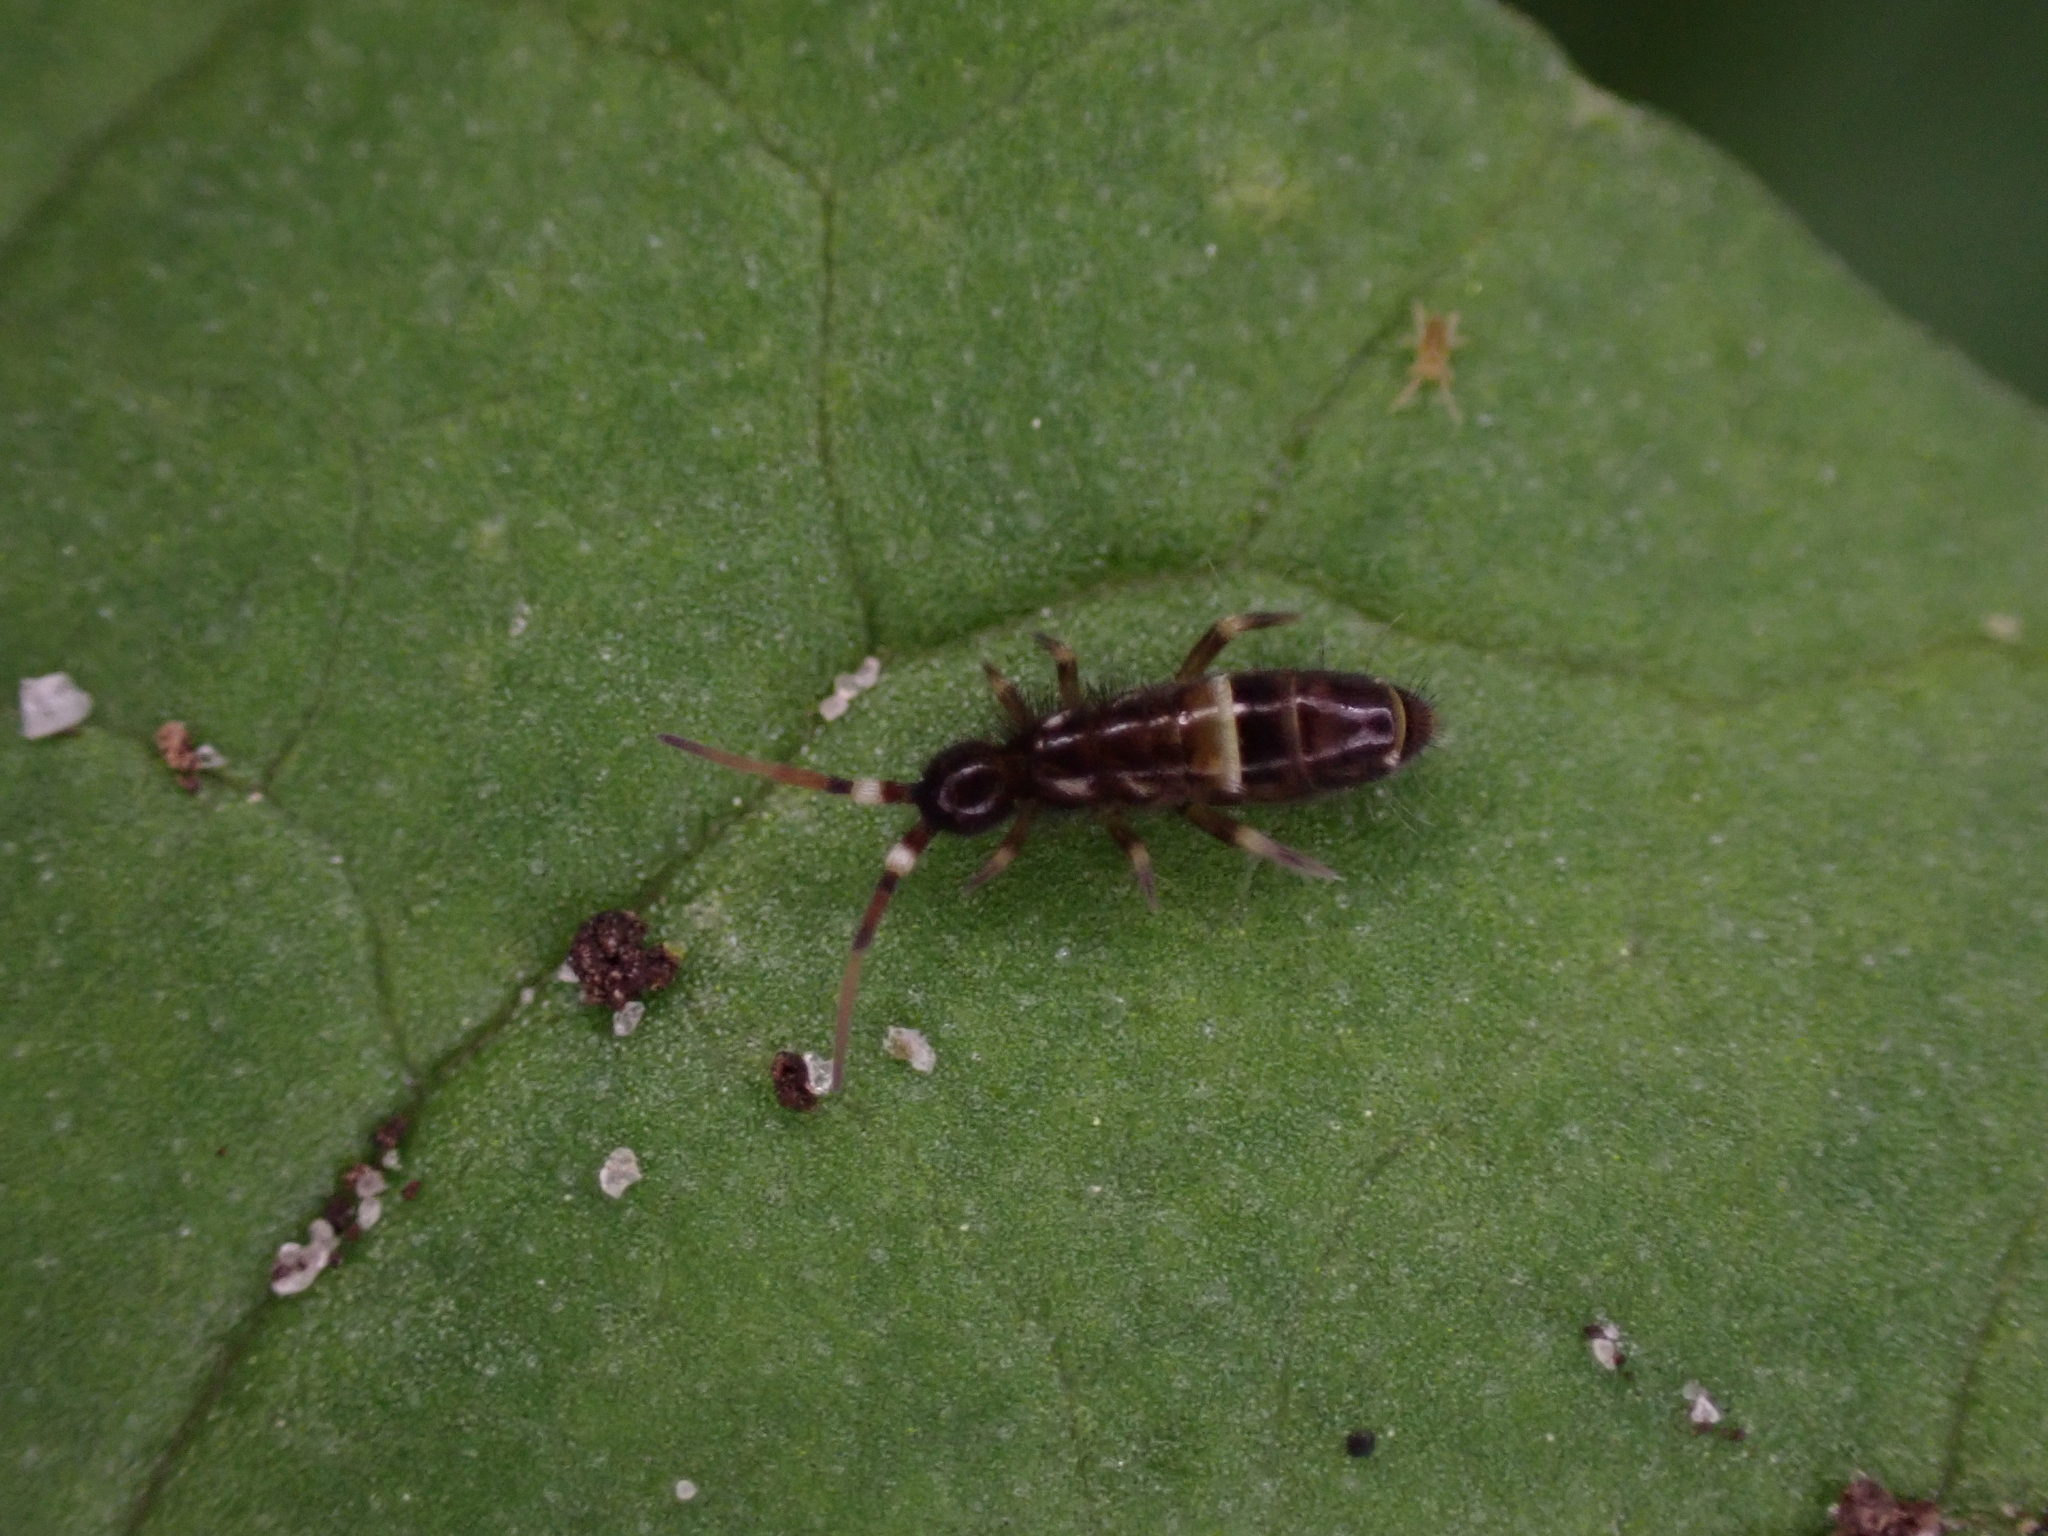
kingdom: Animalia
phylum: Arthropoda
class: Collembola
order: Entomobryomorpha
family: Orchesellidae
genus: Orchesella
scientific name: Orchesella cincta
